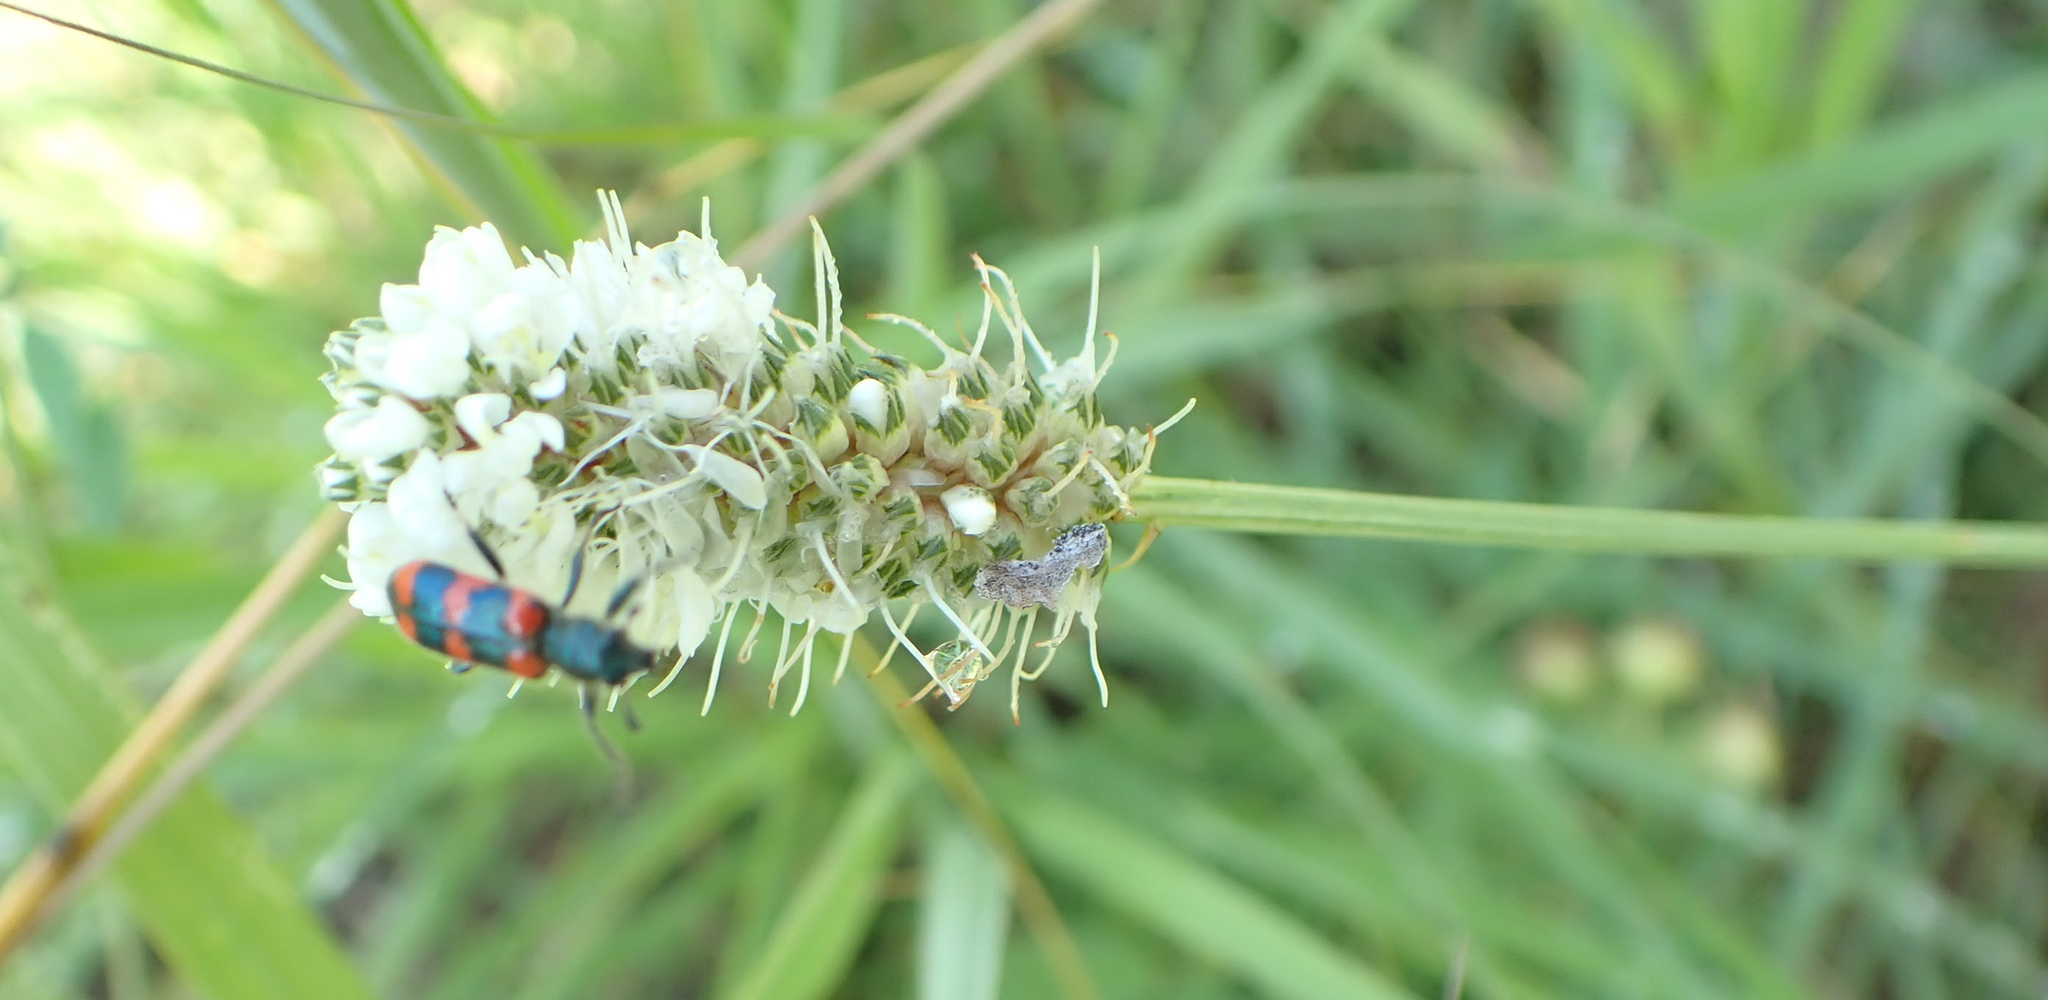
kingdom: Plantae
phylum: Tracheophyta
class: Magnoliopsida
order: Fabales
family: Fabaceae
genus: Dalea
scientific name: Dalea candida
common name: White prairie-clover
